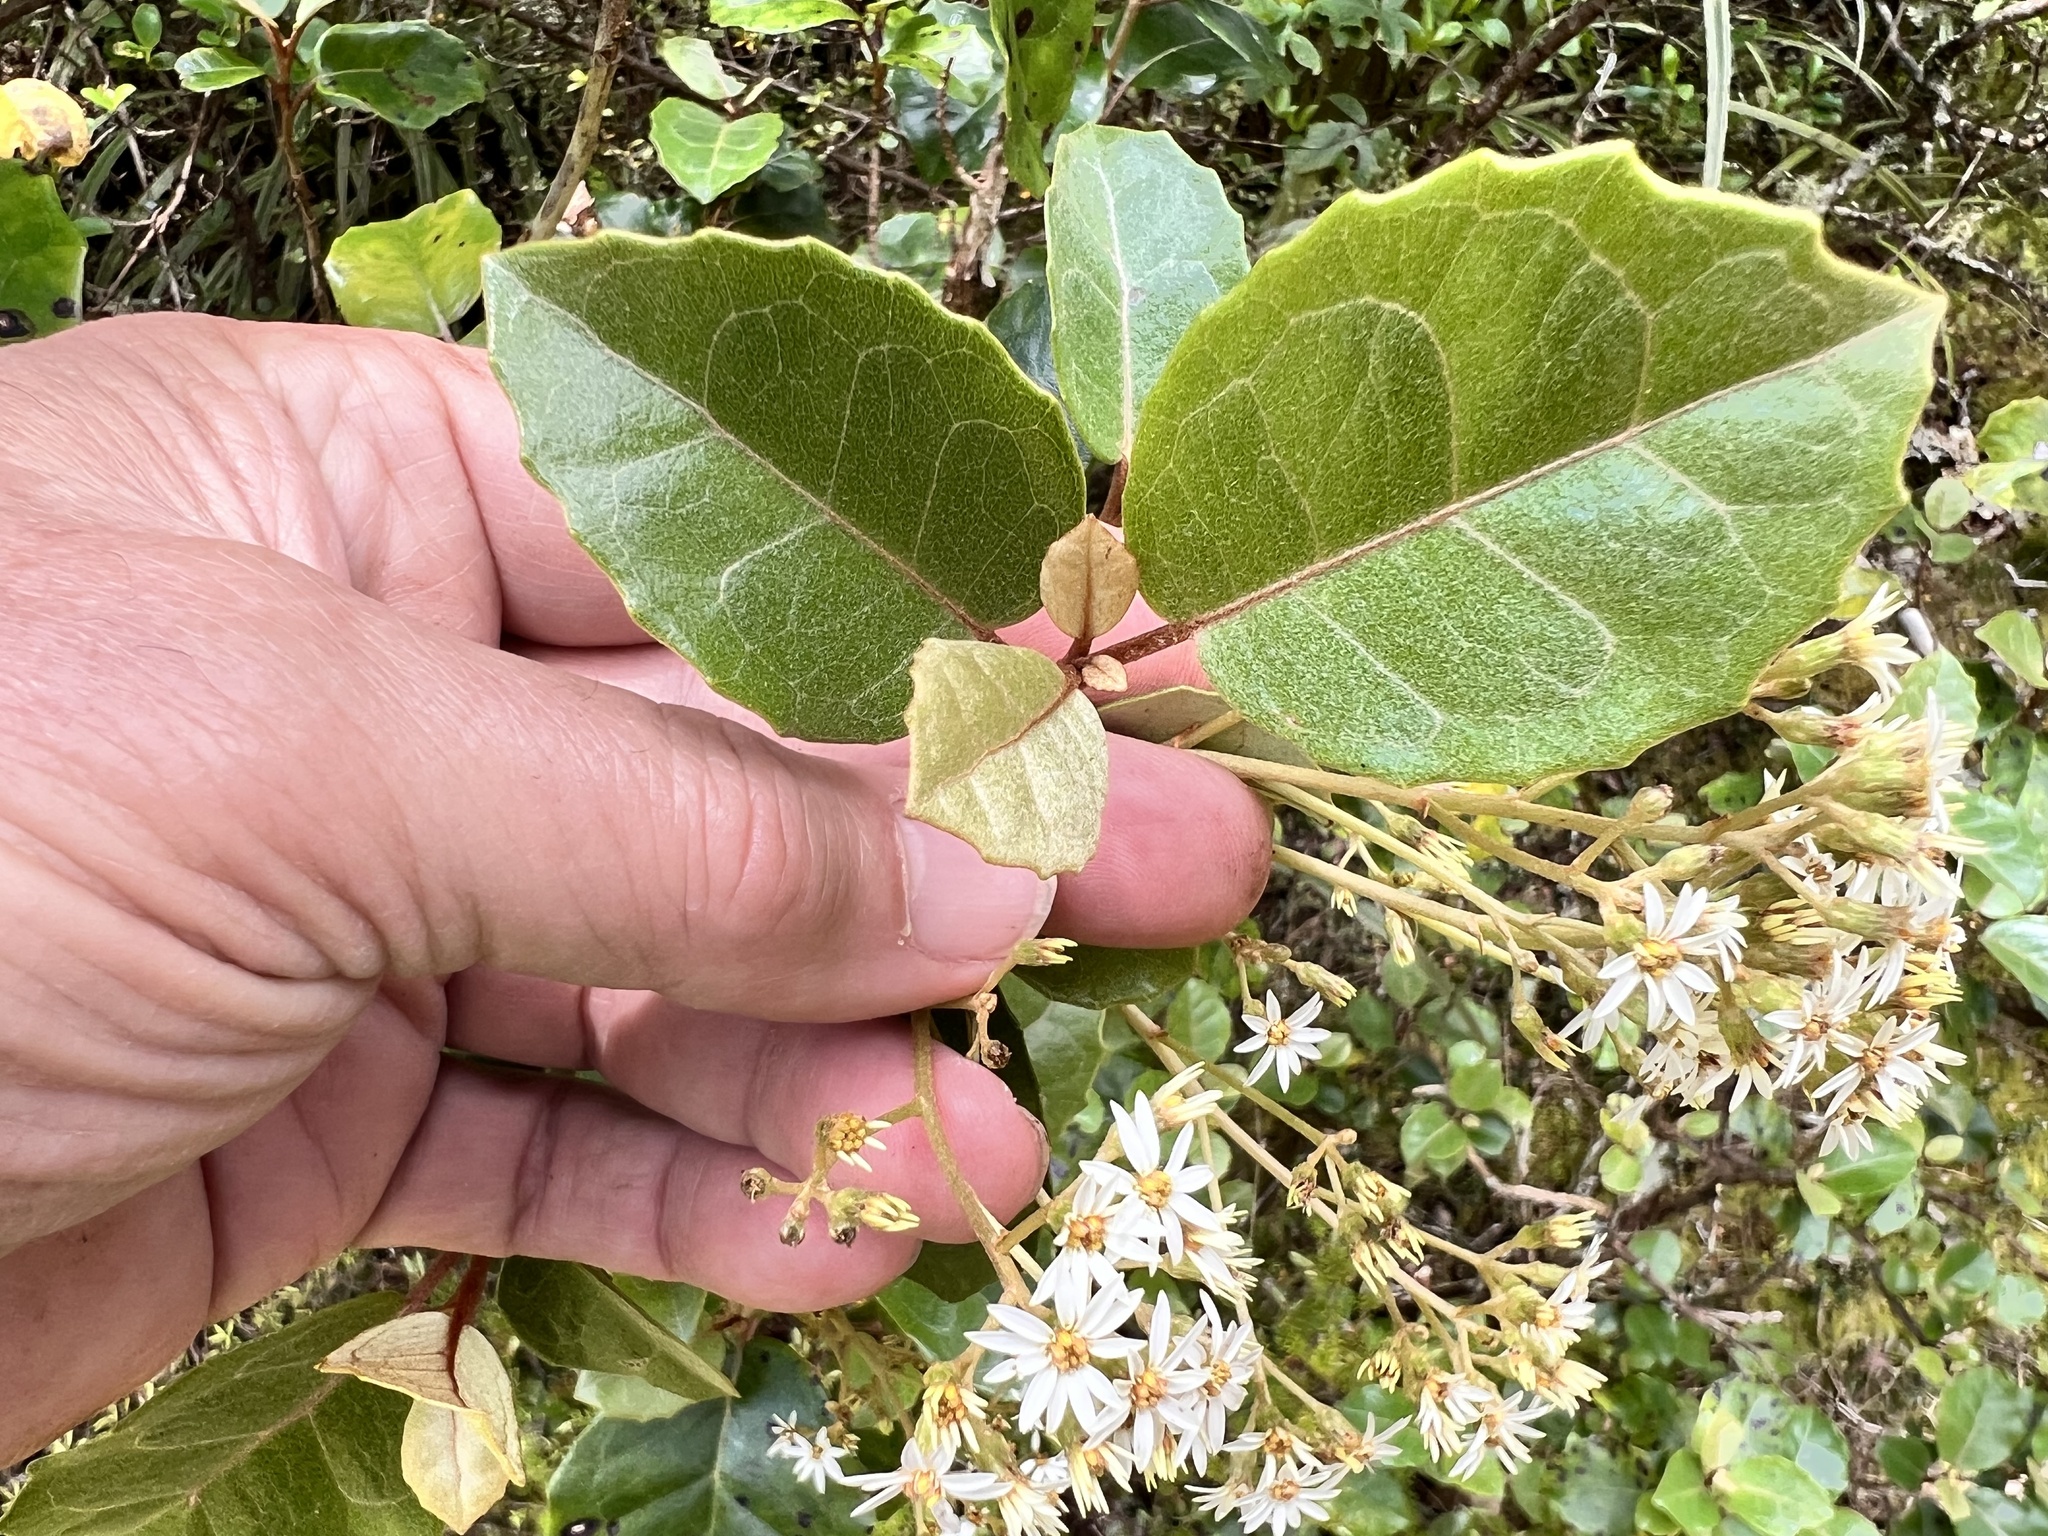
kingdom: Plantae
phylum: Tracheophyta
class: Magnoliopsida
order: Asterales
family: Asteraceae
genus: Olearia
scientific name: Olearia arborescens
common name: Glossy tree daisy
